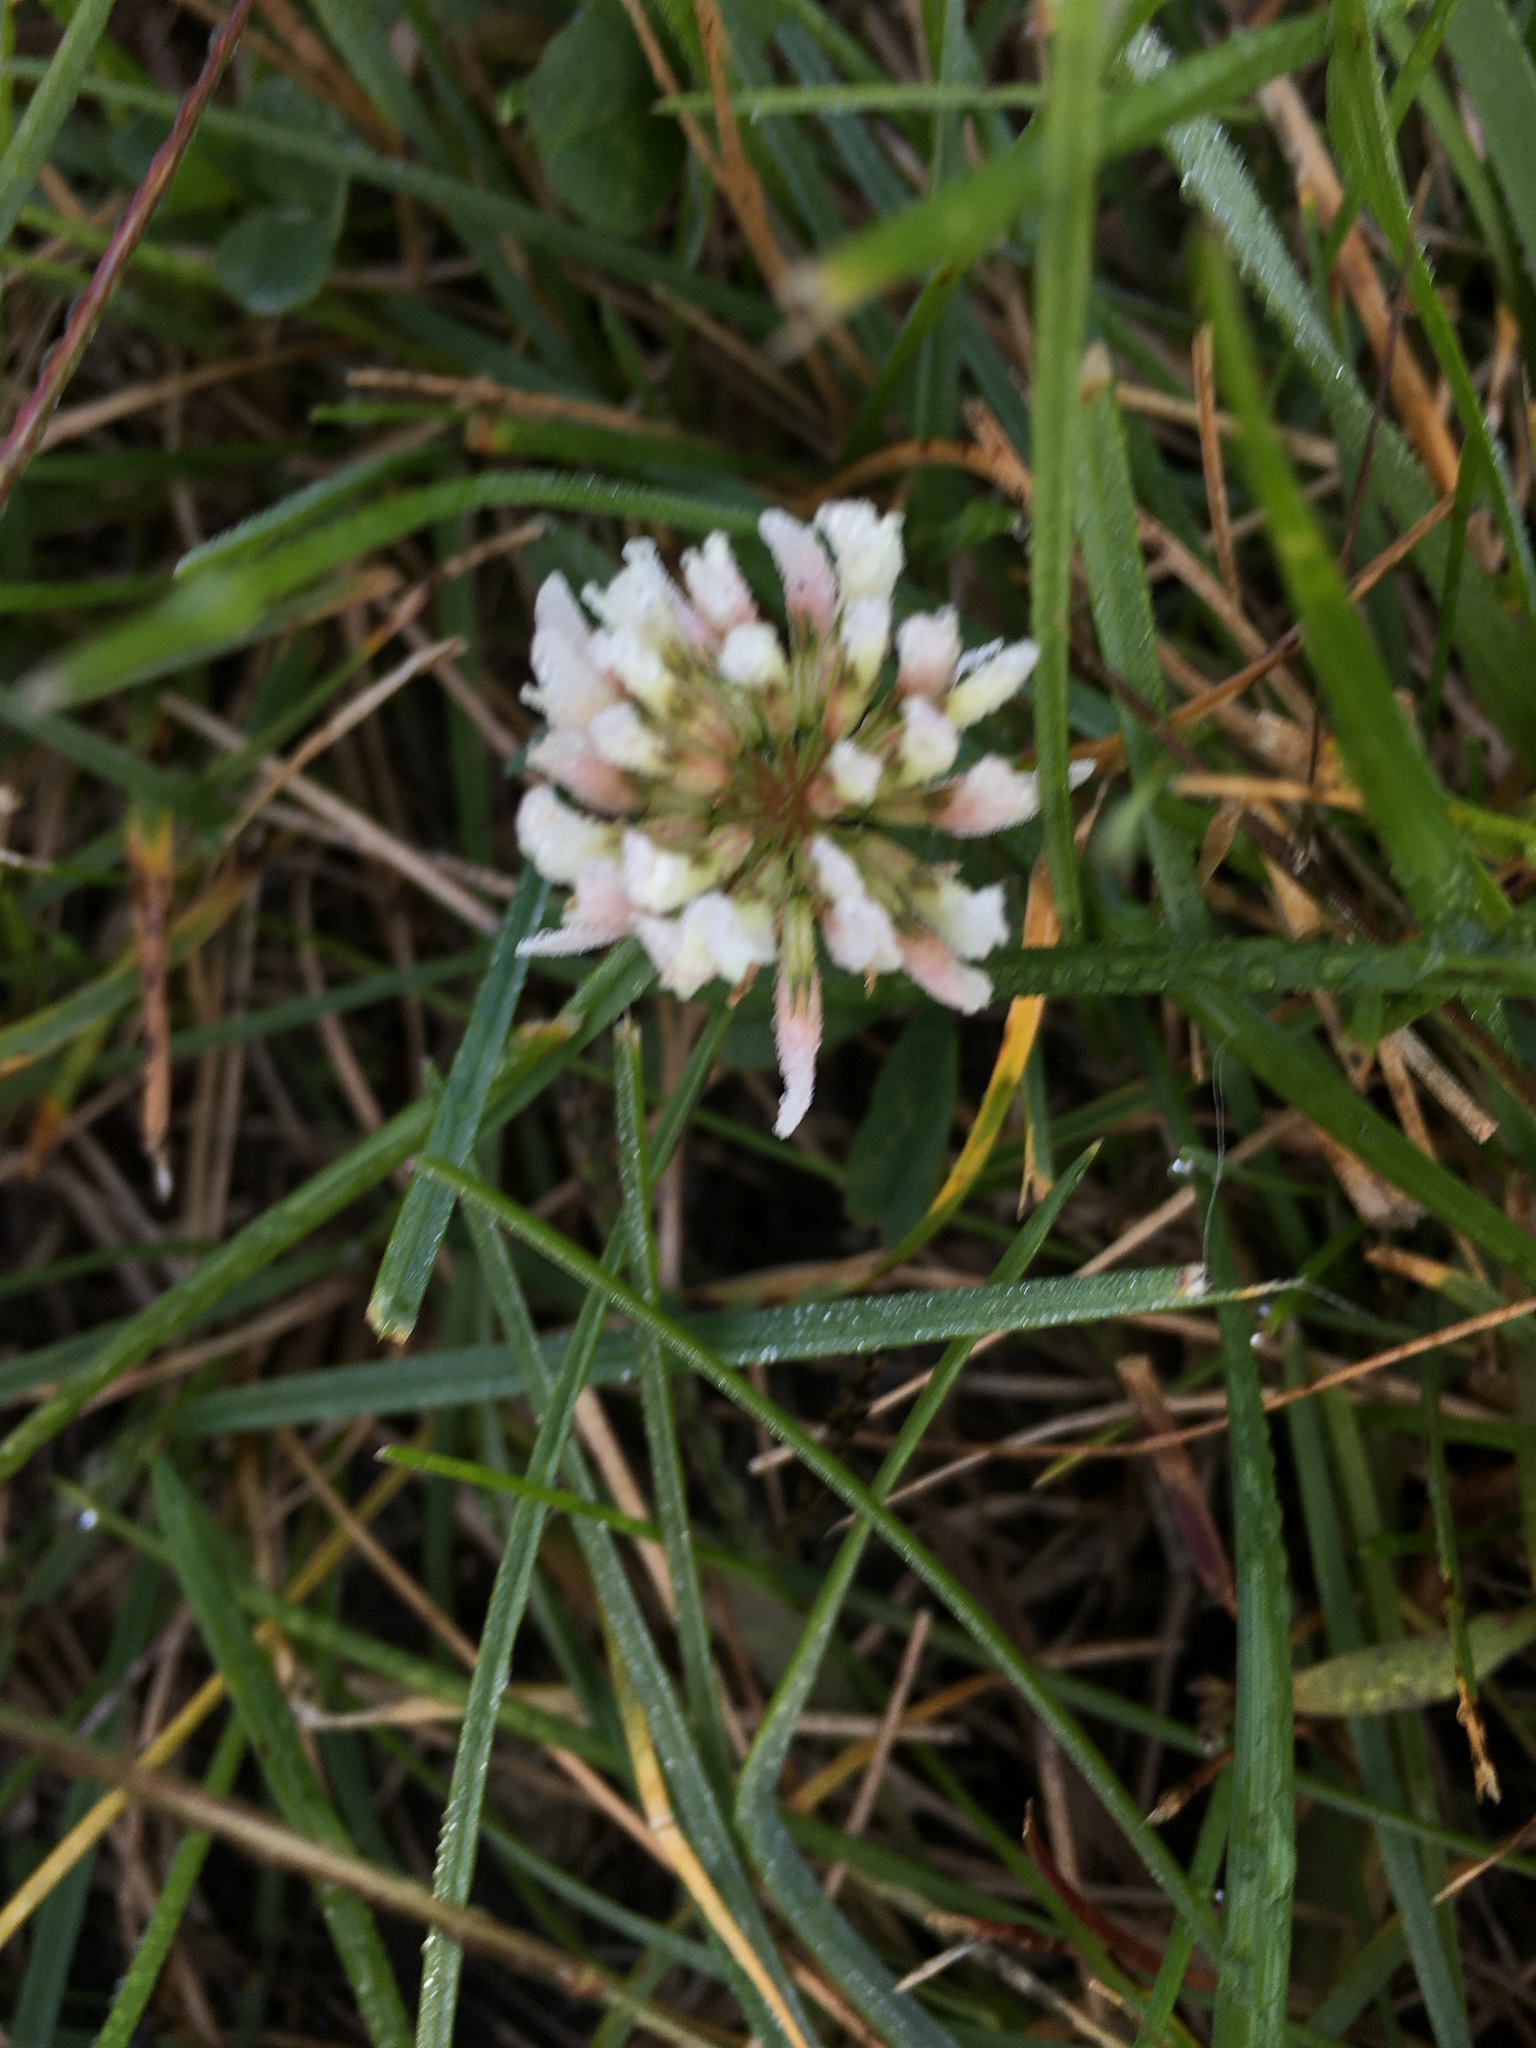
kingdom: Plantae
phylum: Tracheophyta
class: Magnoliopsida
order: Fabales
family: Fabaceae
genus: Trifolium
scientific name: Trifolium repens
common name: White clover
